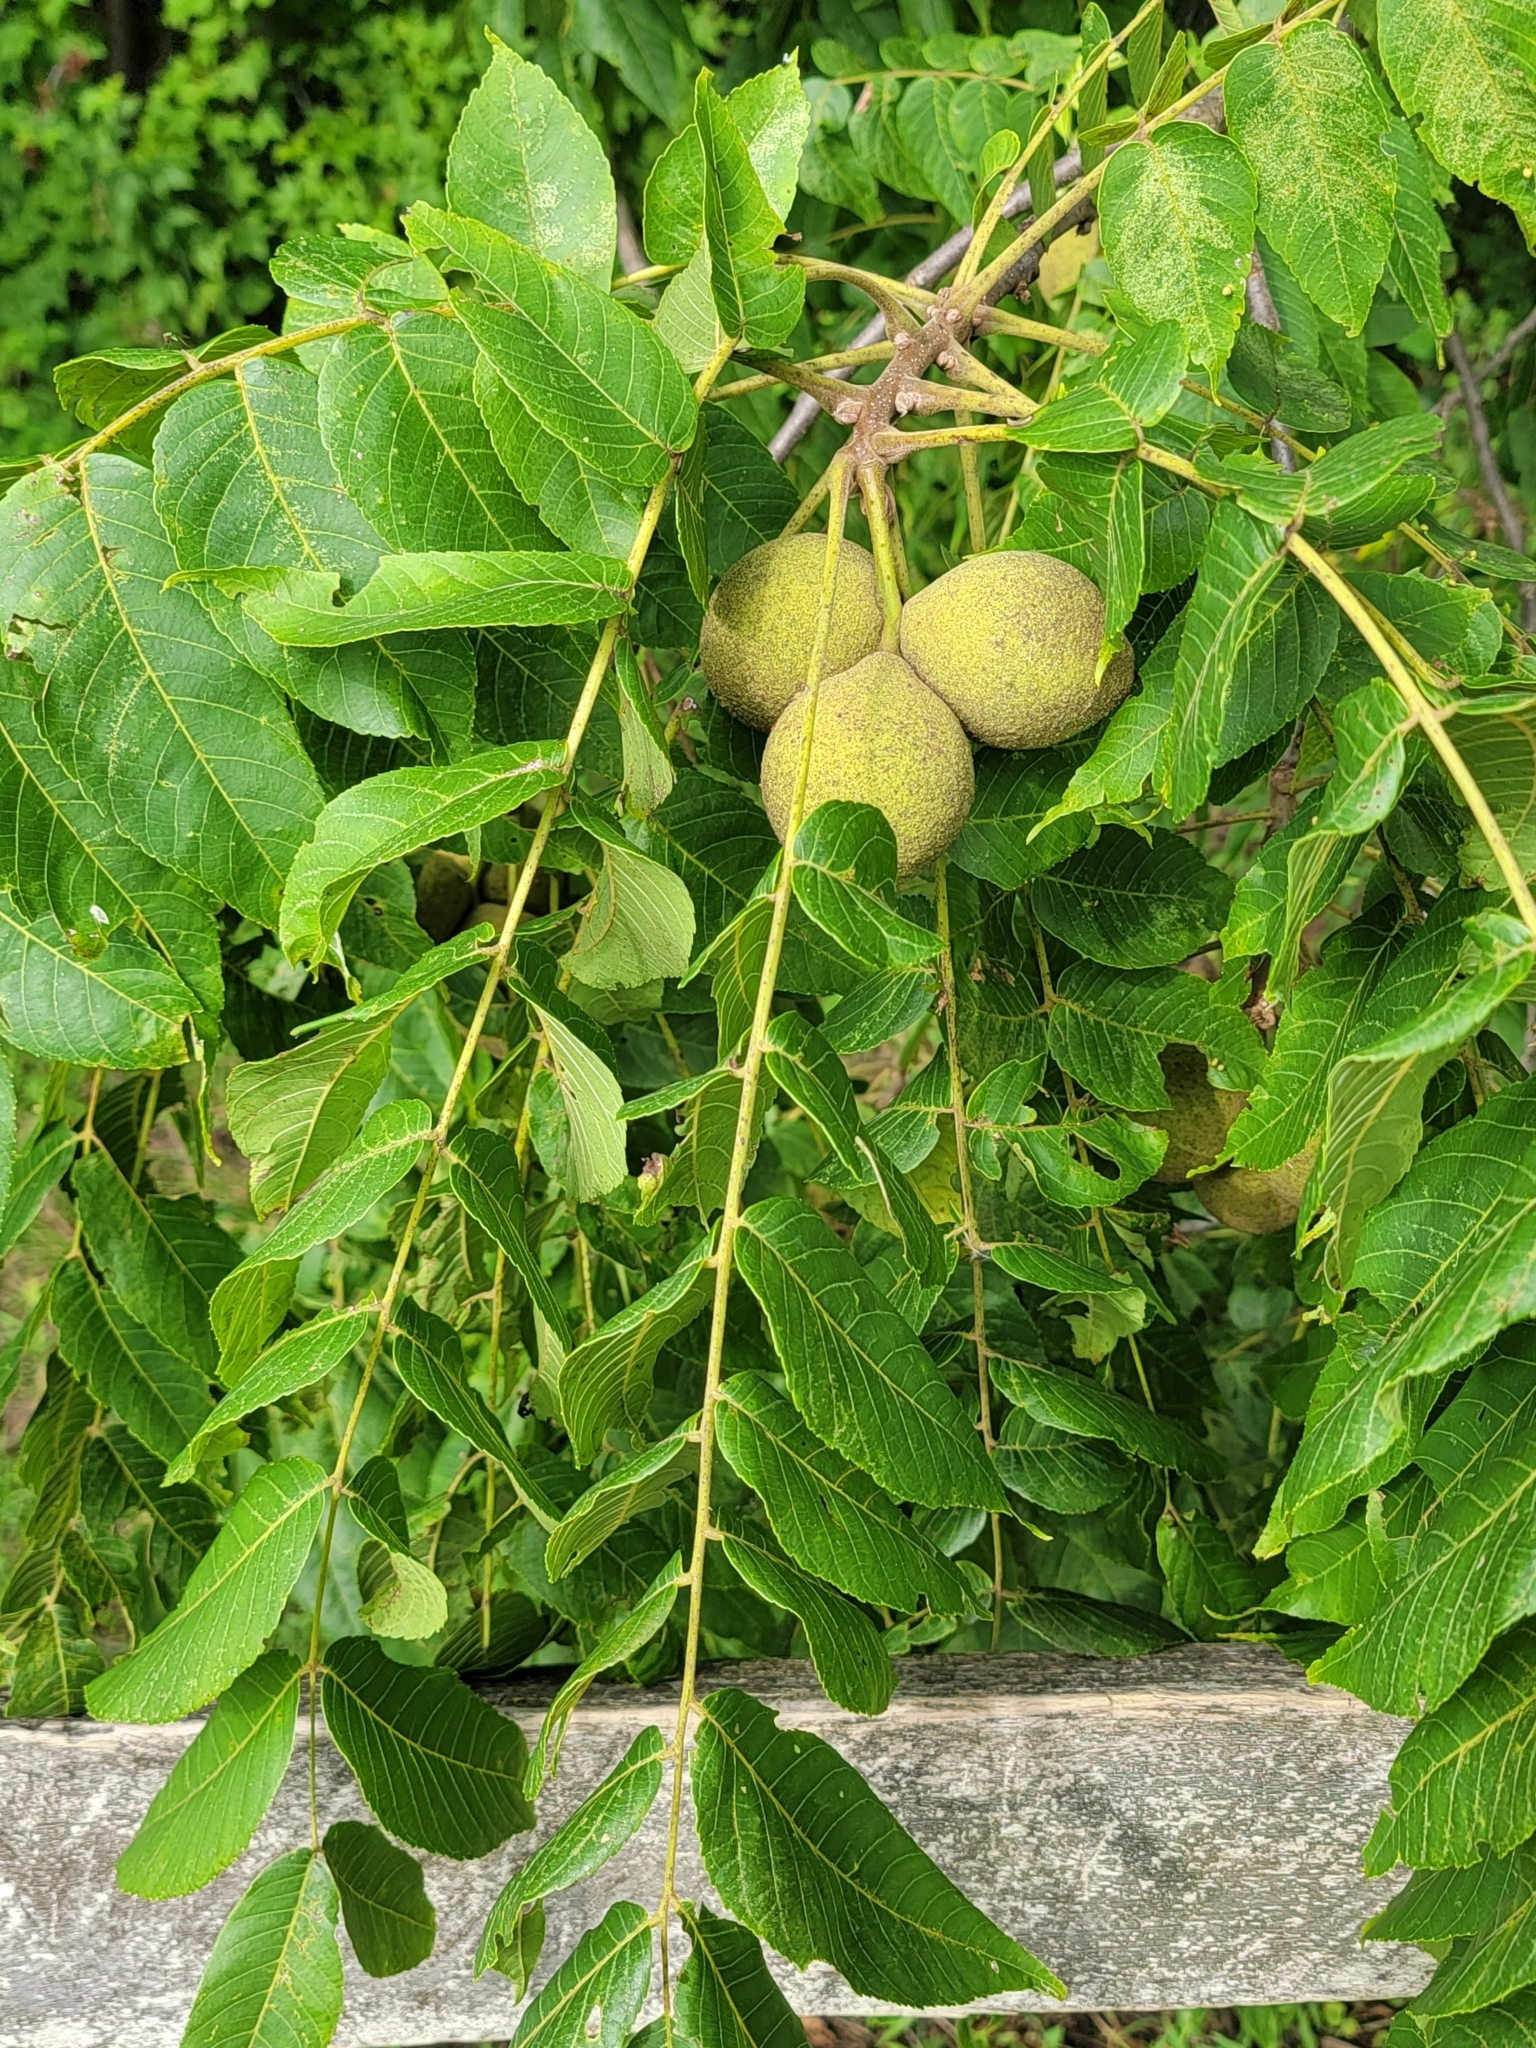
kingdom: Plantae
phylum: Tracheophyta
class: Magnoliopsida
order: Fagales
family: Juglandaceae
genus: Juglans
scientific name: Juglans nigra
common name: Black walnut
